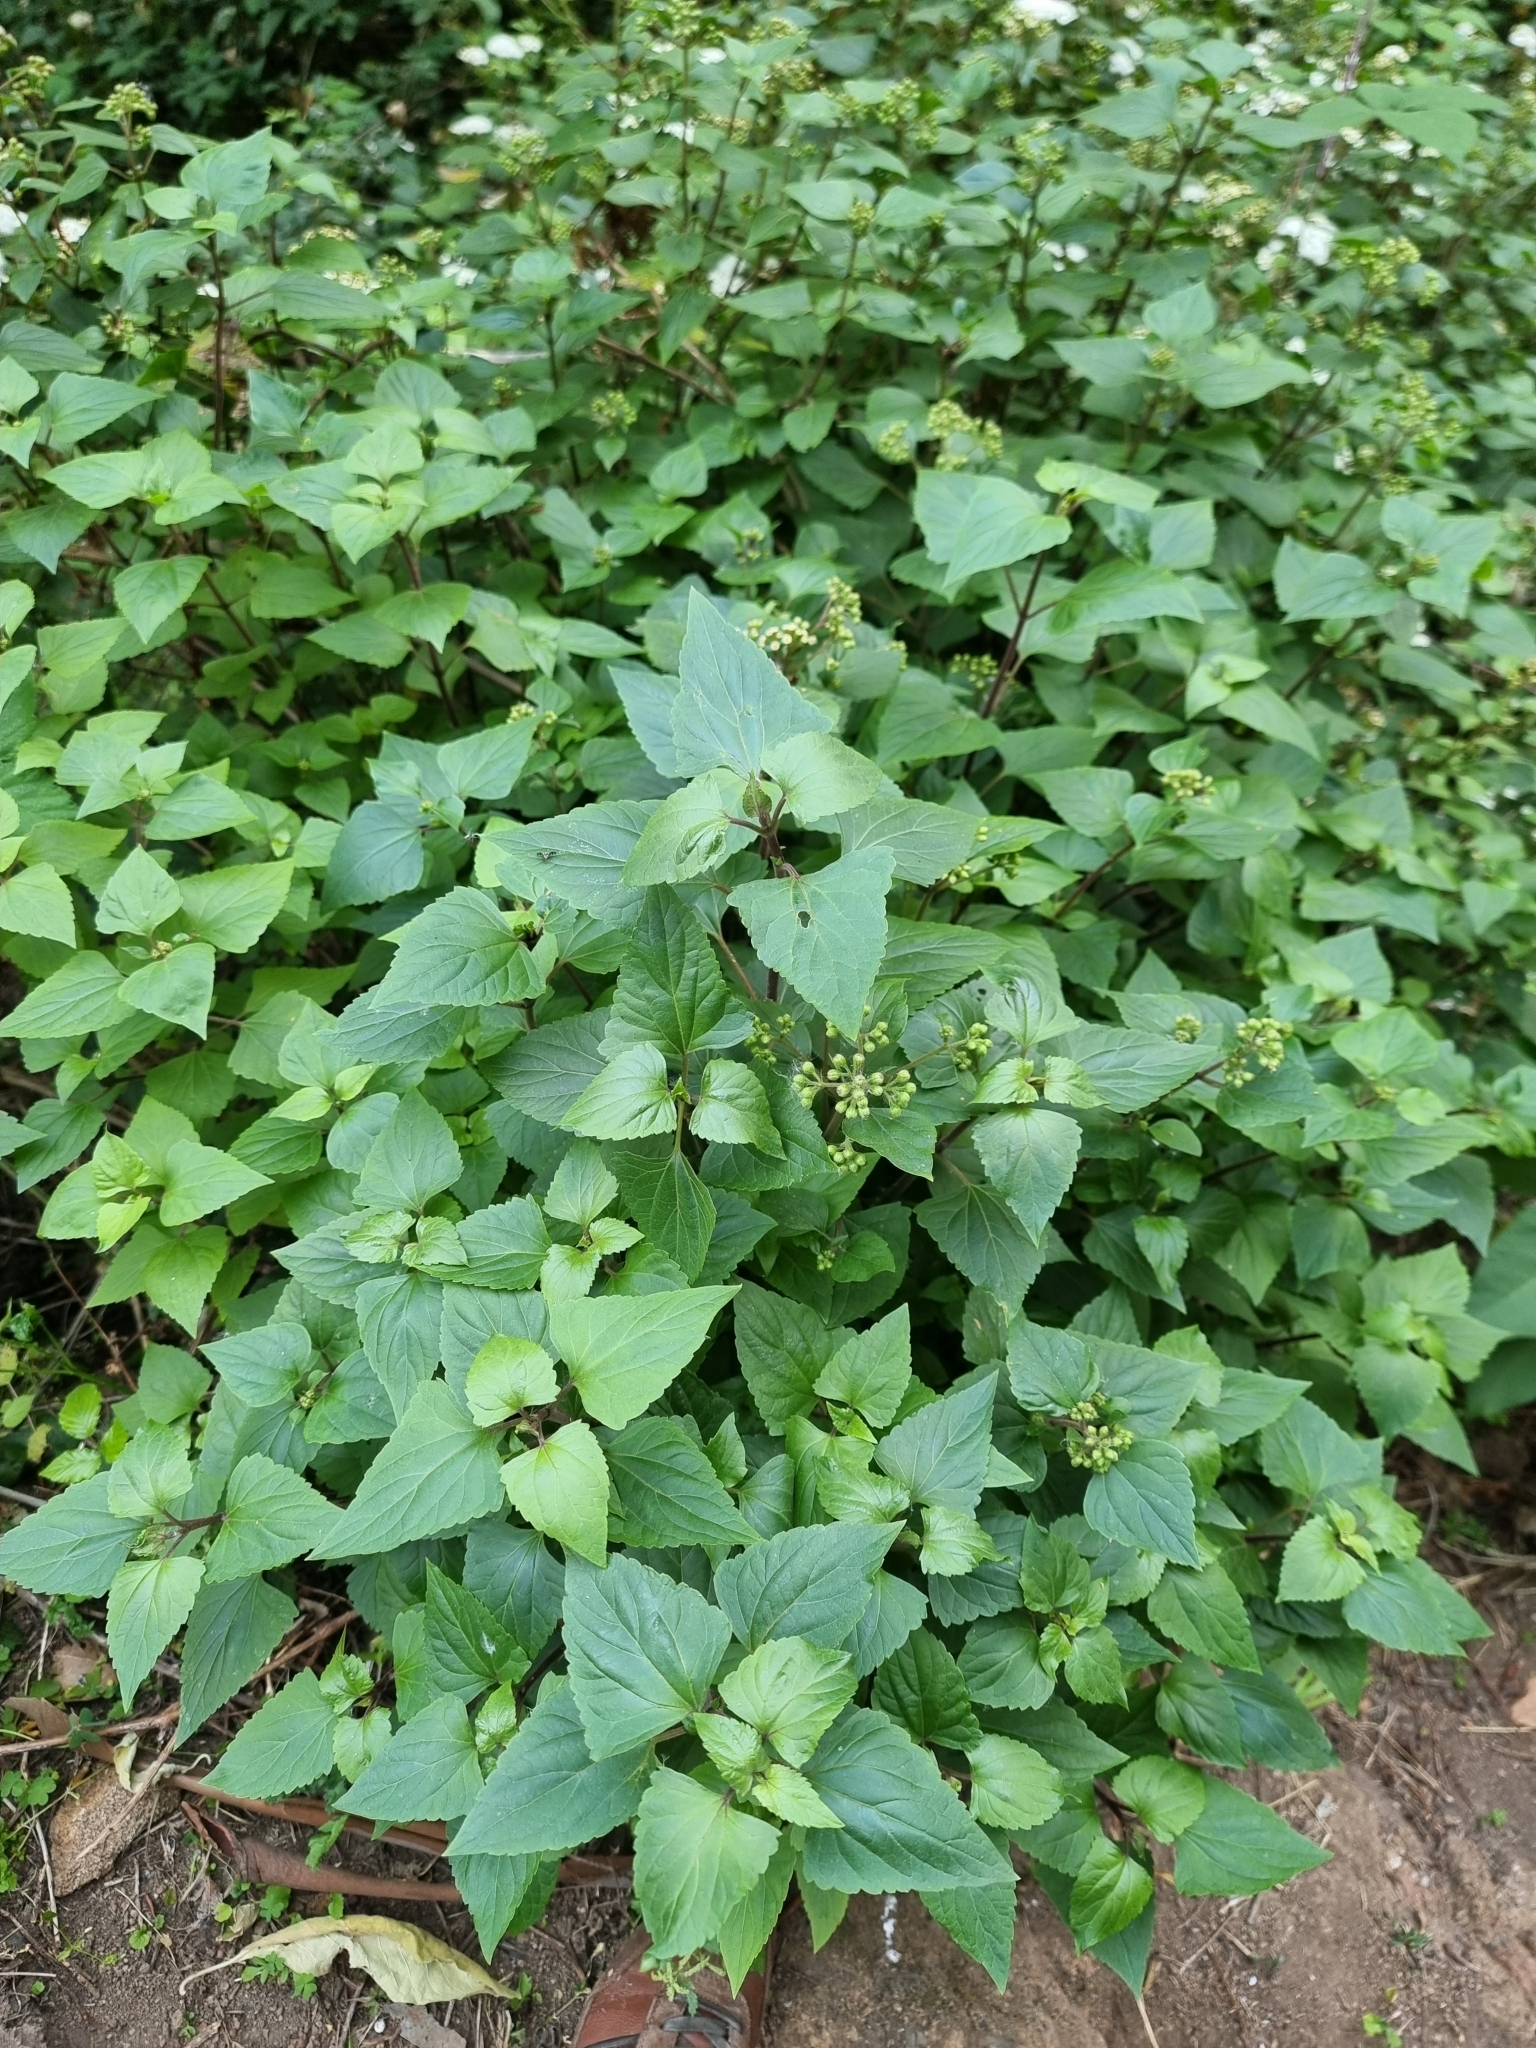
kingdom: Plantae
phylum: Tracheophyta
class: Magnoliopsida
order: Asterales
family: Asteraceae
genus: Ageratina
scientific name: Ageratina adenophora
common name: Sticky snakeroot
